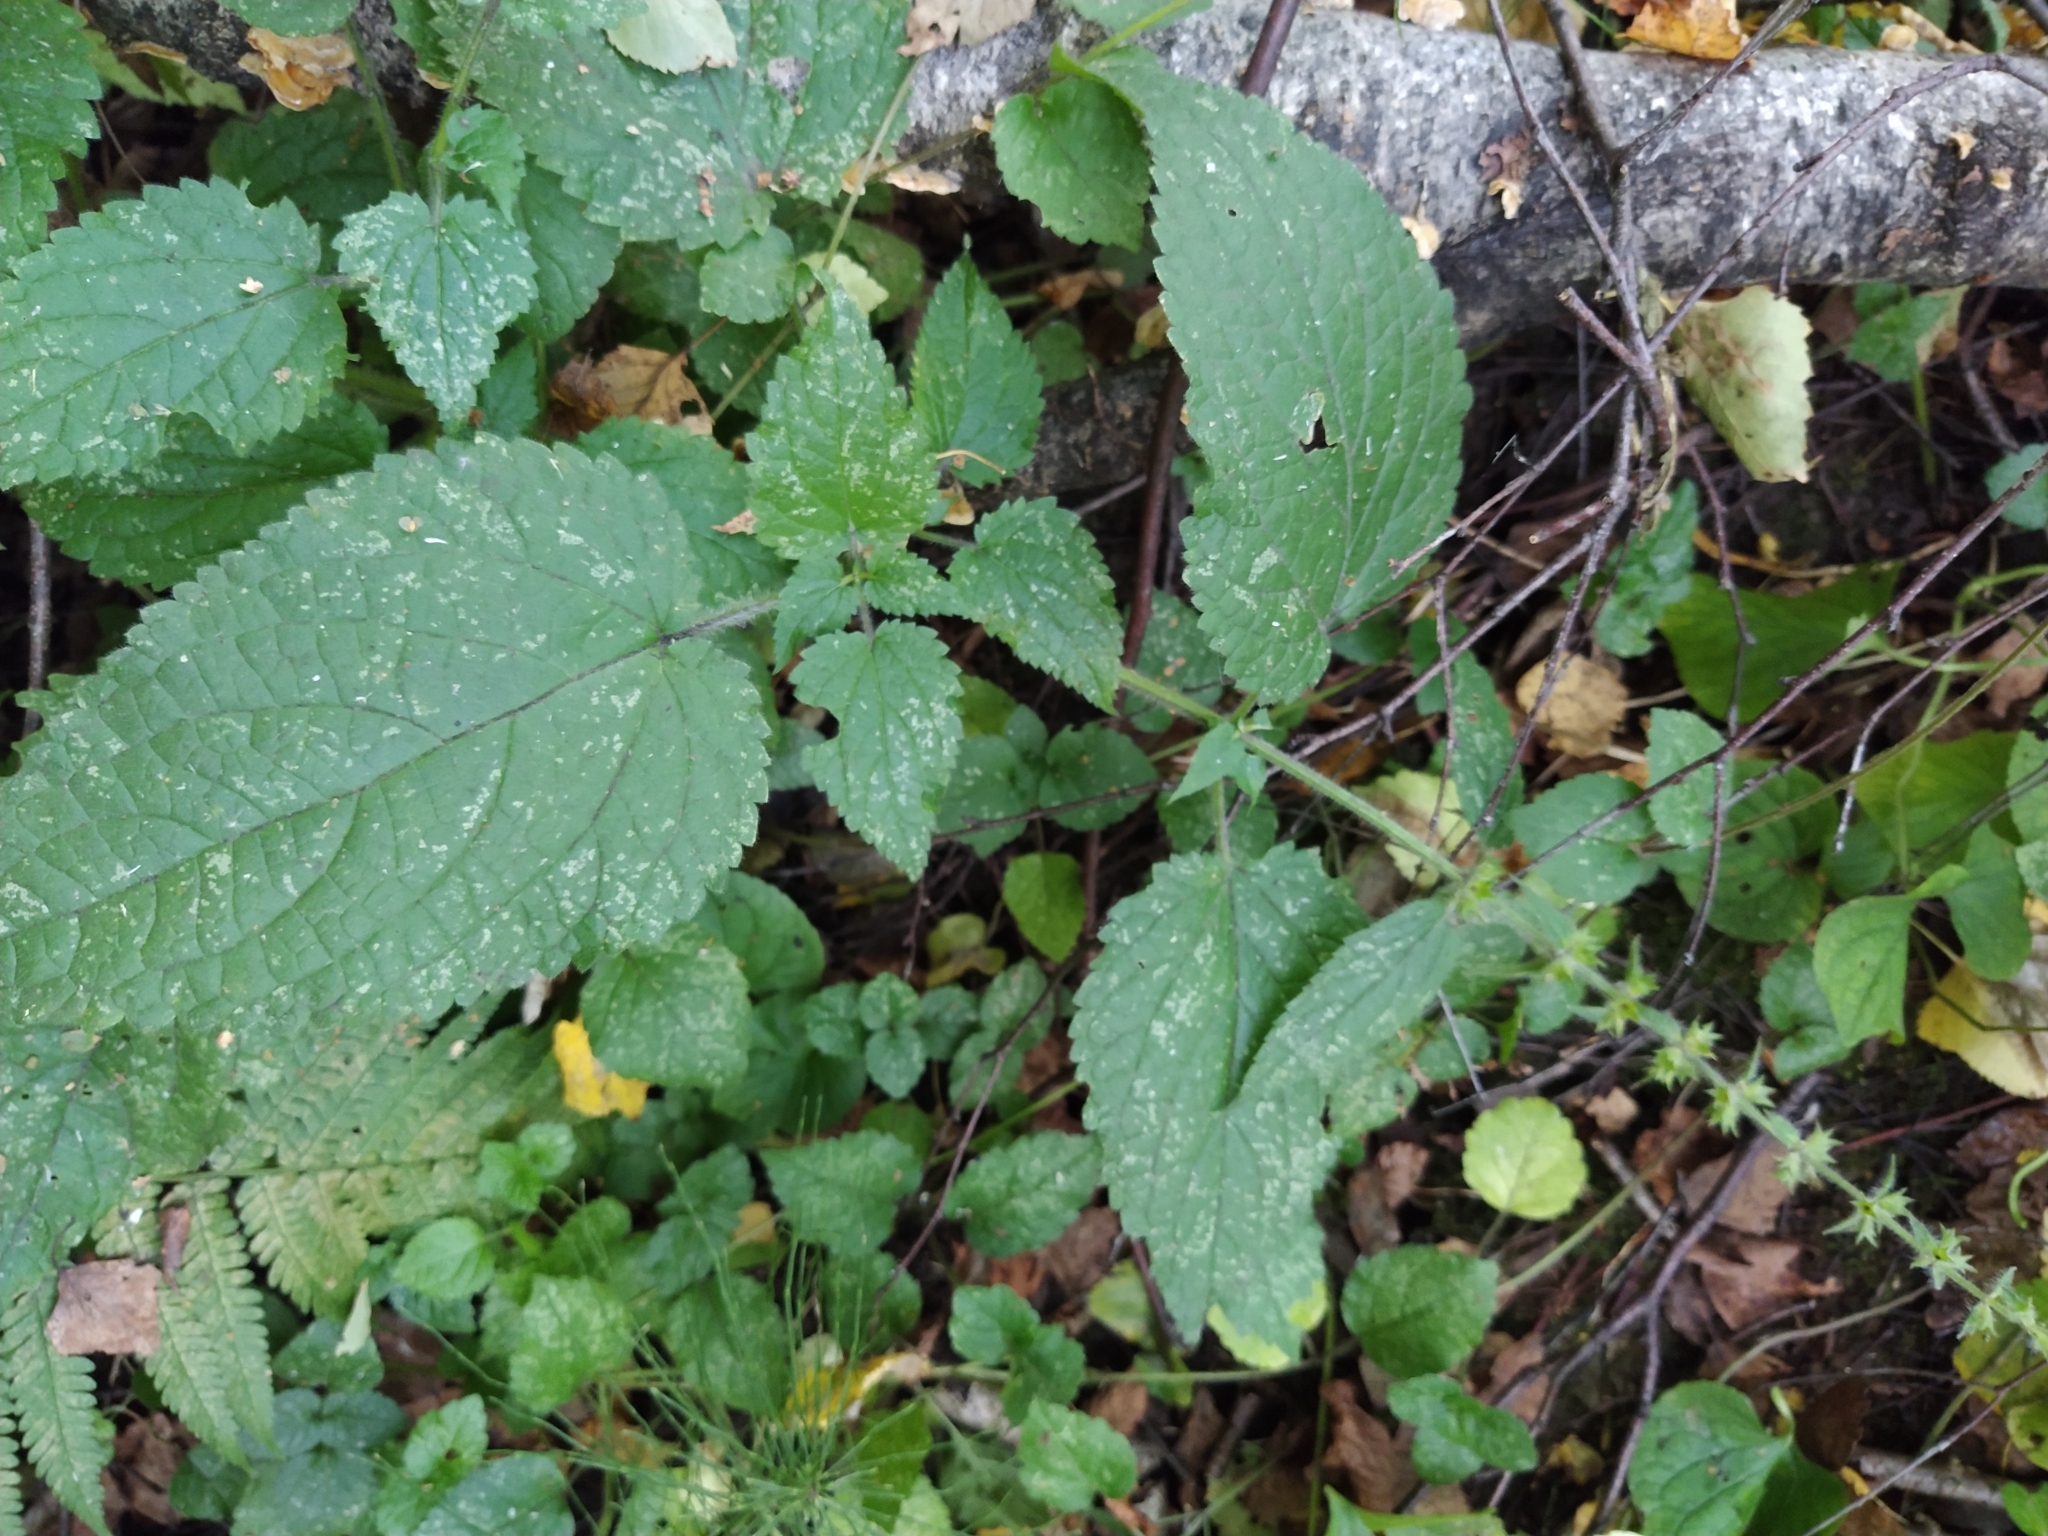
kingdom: Plantae
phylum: Tracheophyta
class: Magnoliopsida
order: Lamiales
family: Lamiaceae
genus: Stachys
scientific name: Stachys sylvatica
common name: Hedge woundwort
